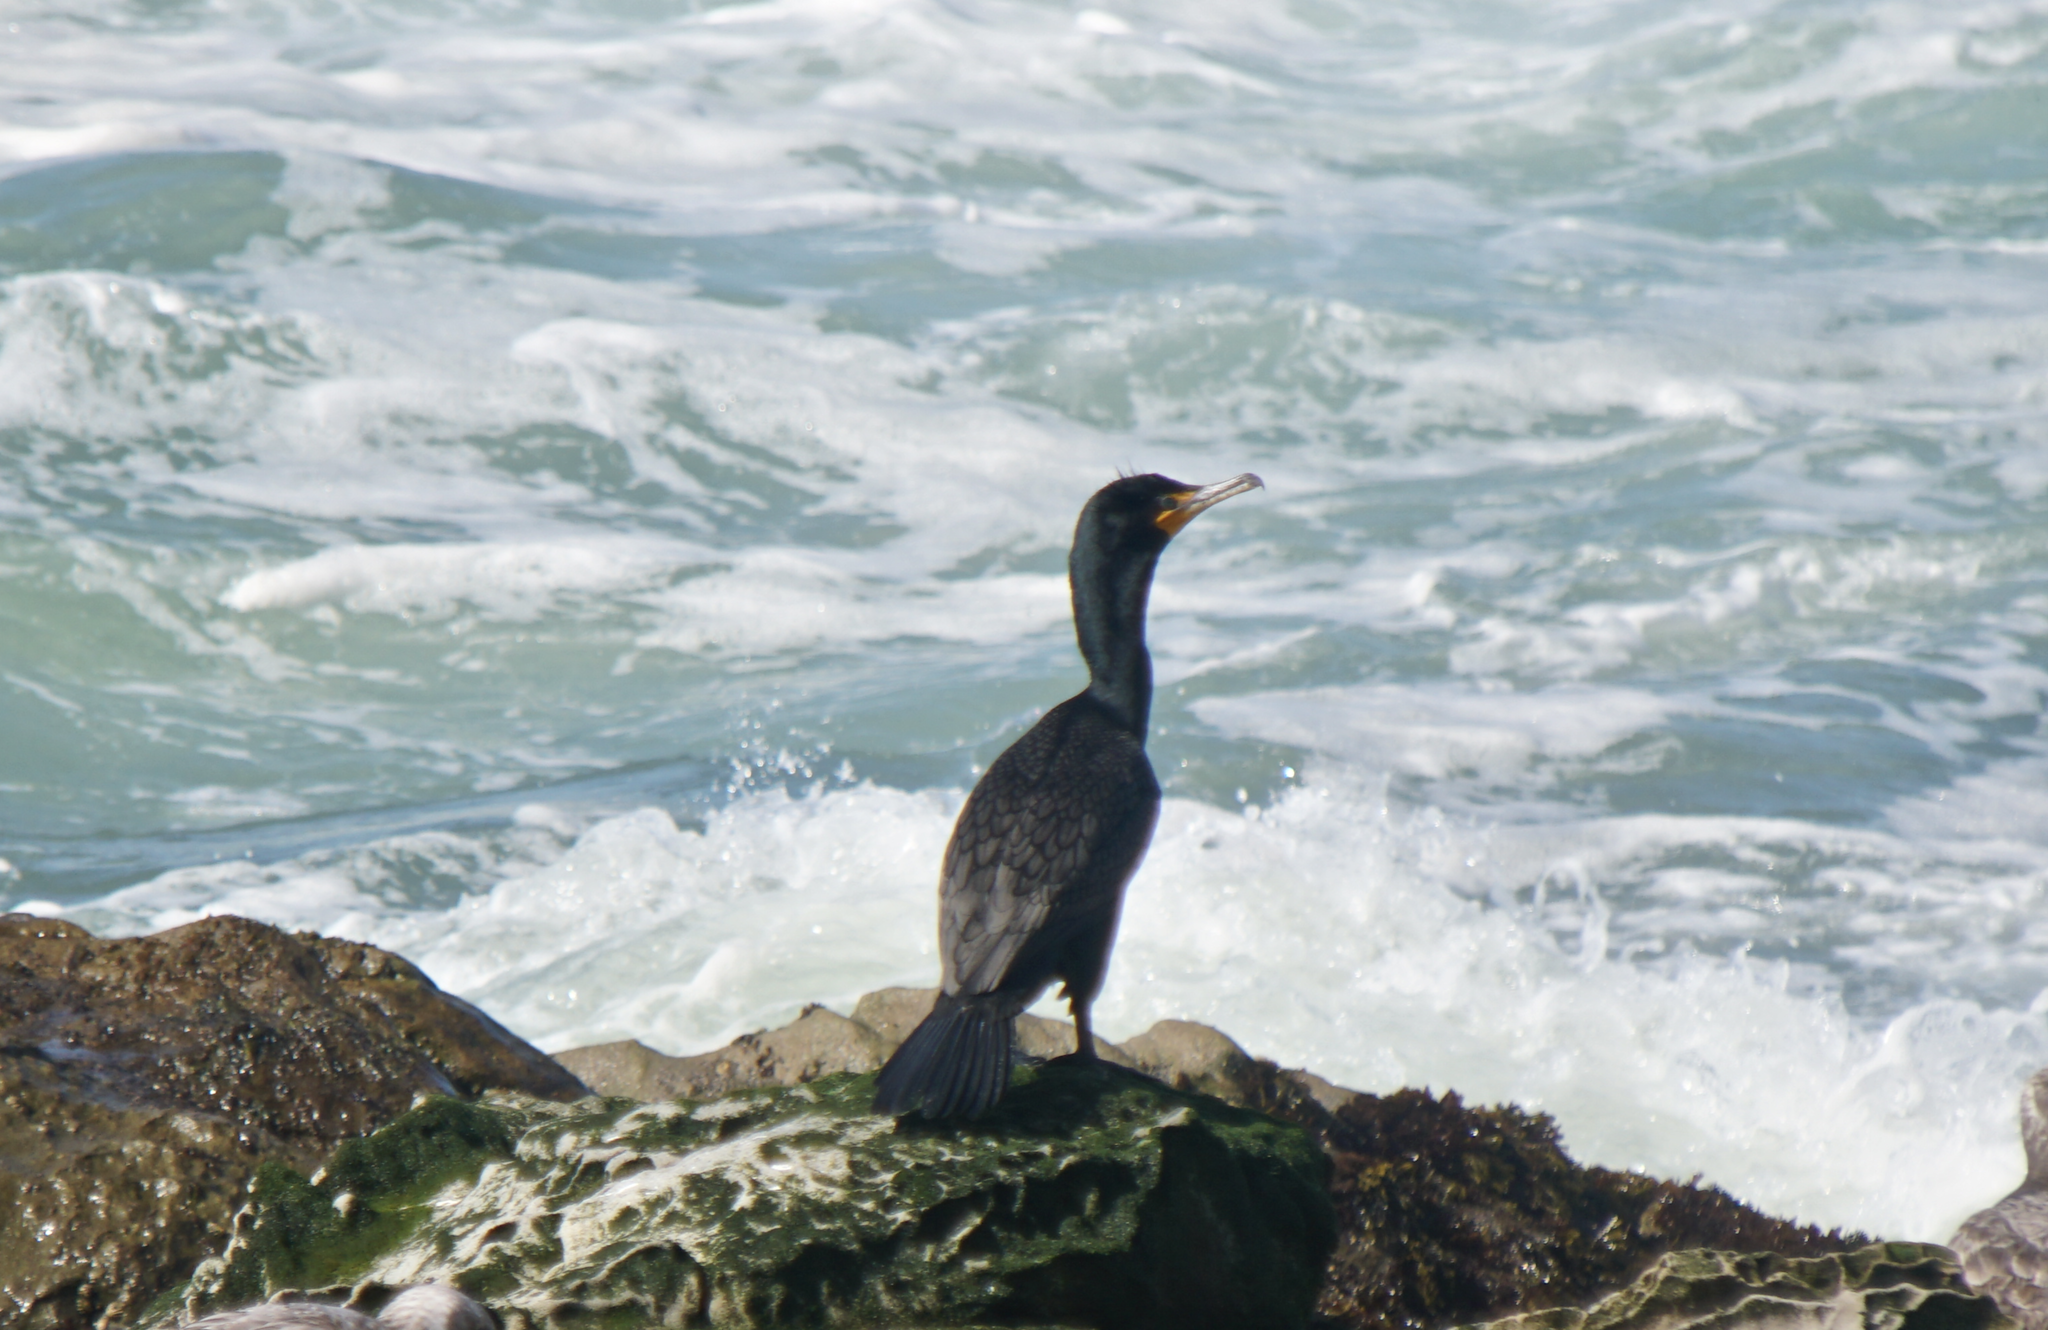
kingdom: Animalia
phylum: Chordata
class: Aves
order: Suliformes
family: Phalacrocoracidae
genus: Phalacrocorax
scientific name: Phalacrocorax auritus
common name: Double-crested cormorant
